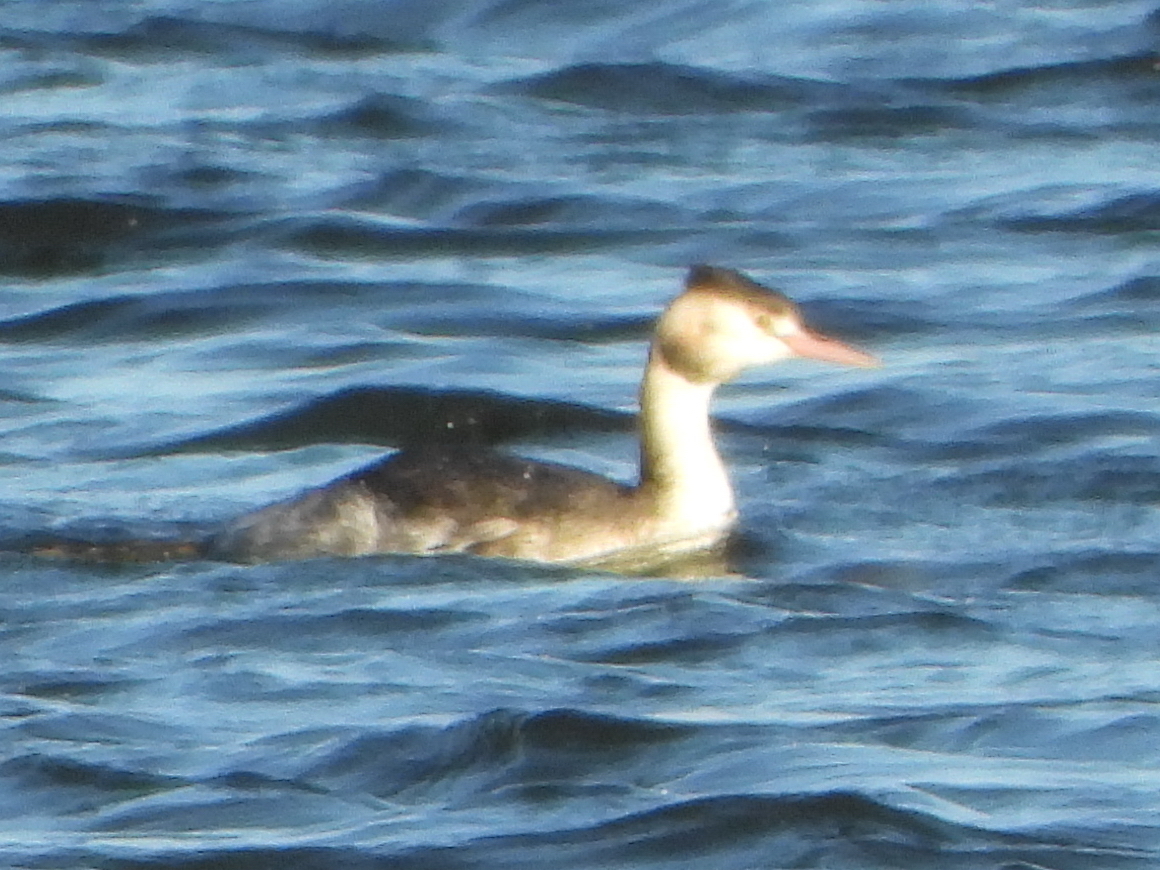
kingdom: Animalia
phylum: Chordata
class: Aves
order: Podicipediformes
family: Podicipedidae
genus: Podiceps
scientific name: Podiceps cristatus
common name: Great crested grebe
